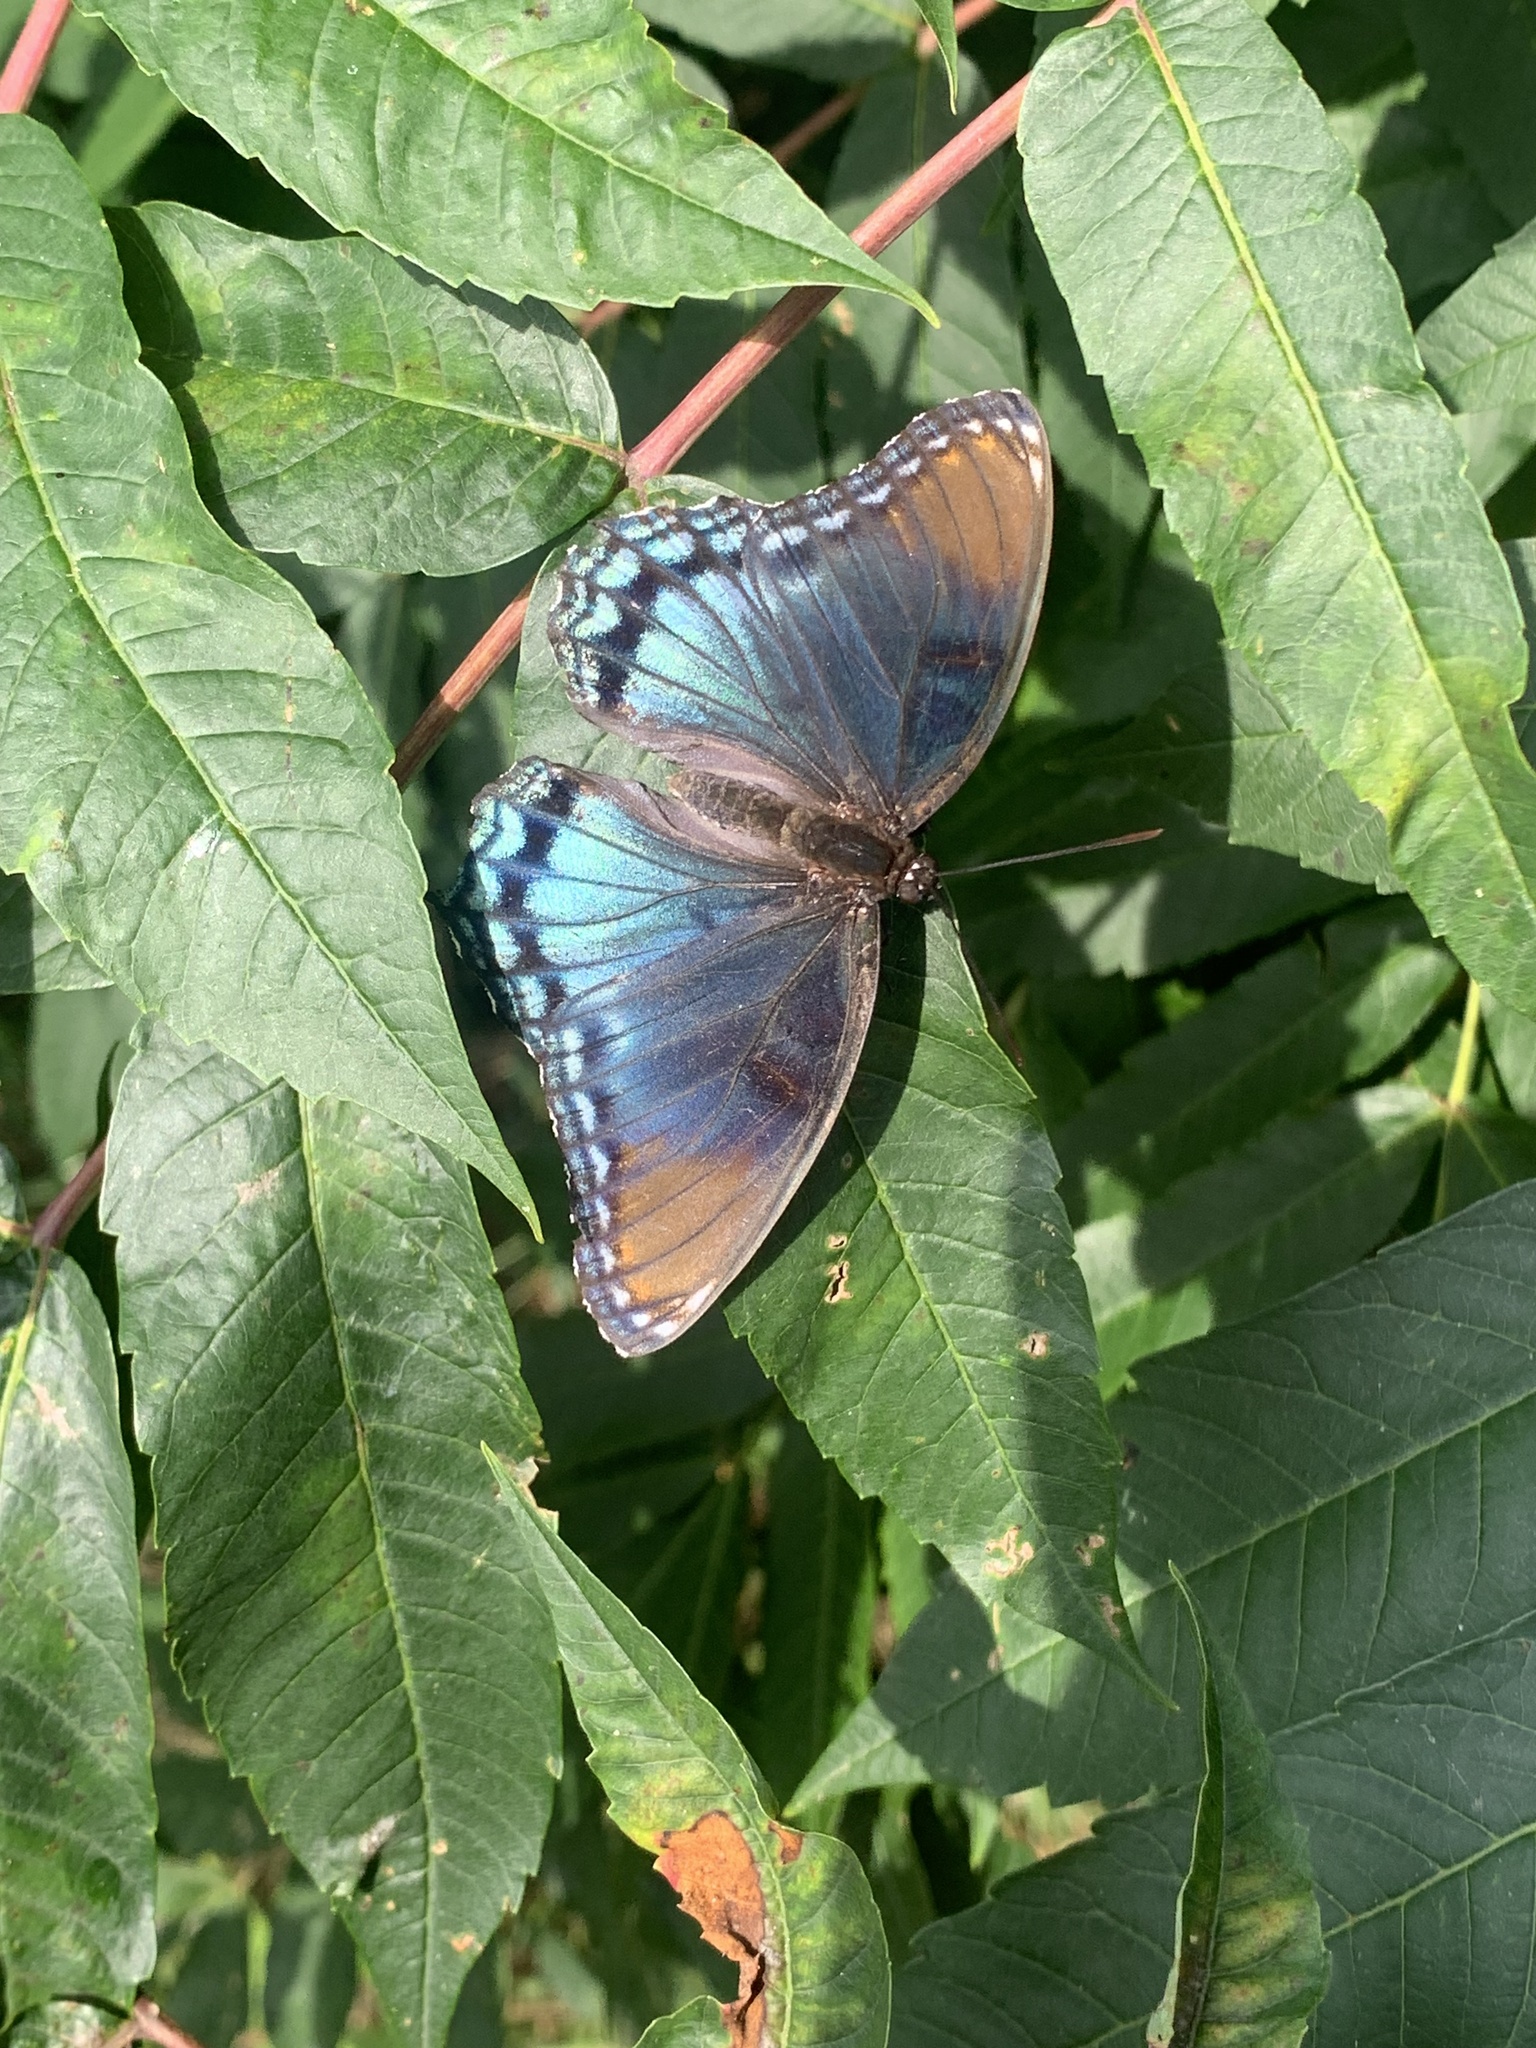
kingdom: Animalia
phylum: Arthropoda
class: Insecta
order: Lepidoptera
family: Nymphalidae
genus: Limenitis
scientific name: Limenitis astyanax
